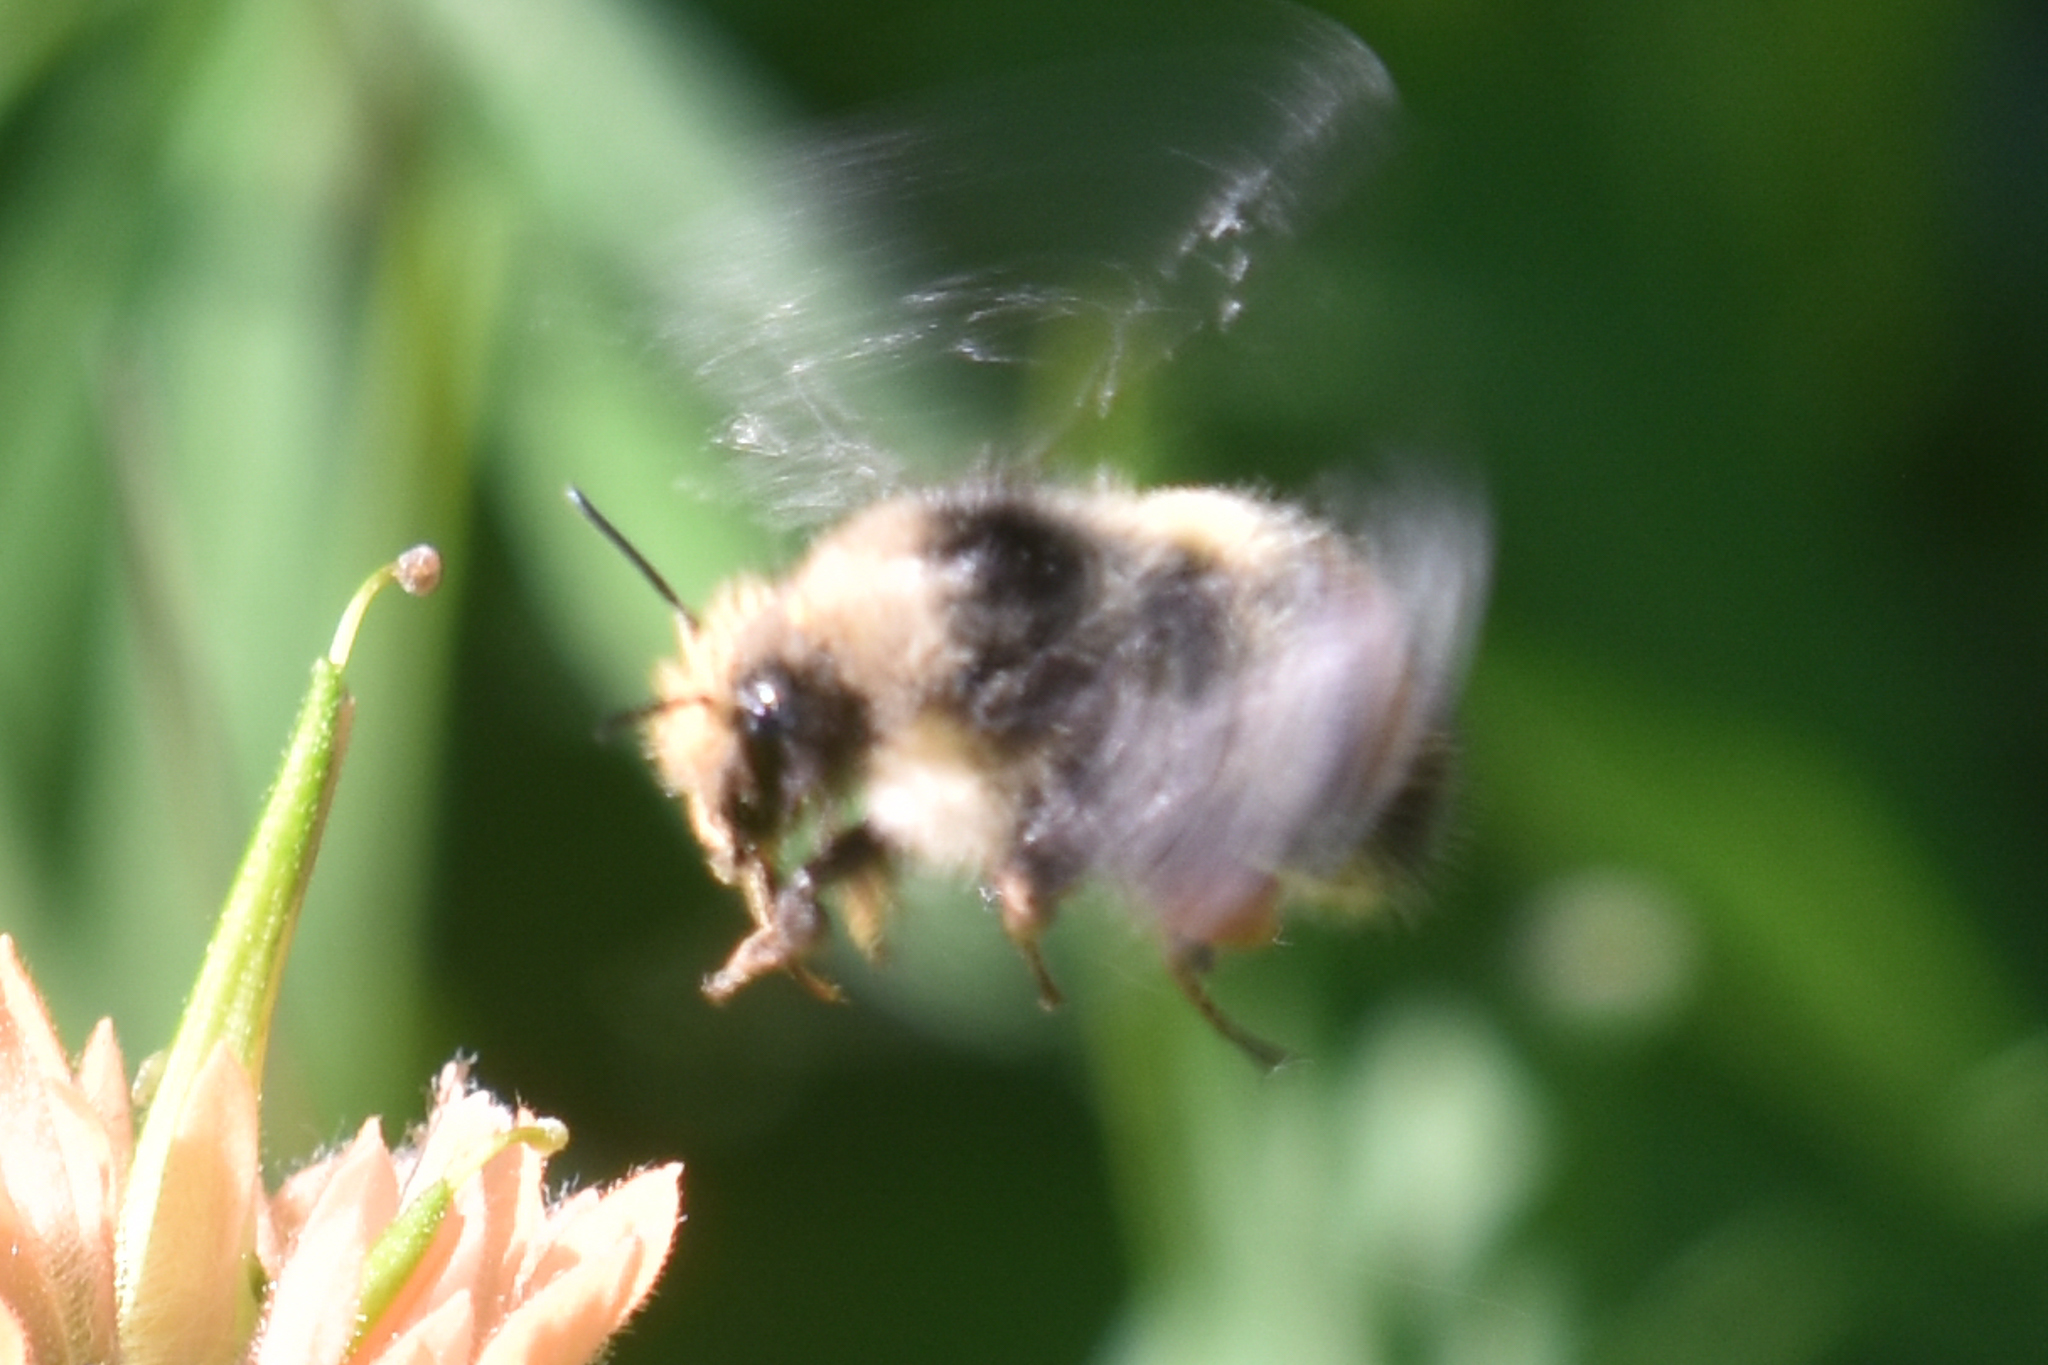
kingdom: Animalia
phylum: Arthropoda
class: Insecta
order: Hymenoptera
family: Apidae
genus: Bombus
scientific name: Bombus flavifrons
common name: Yellow head bumble bee
